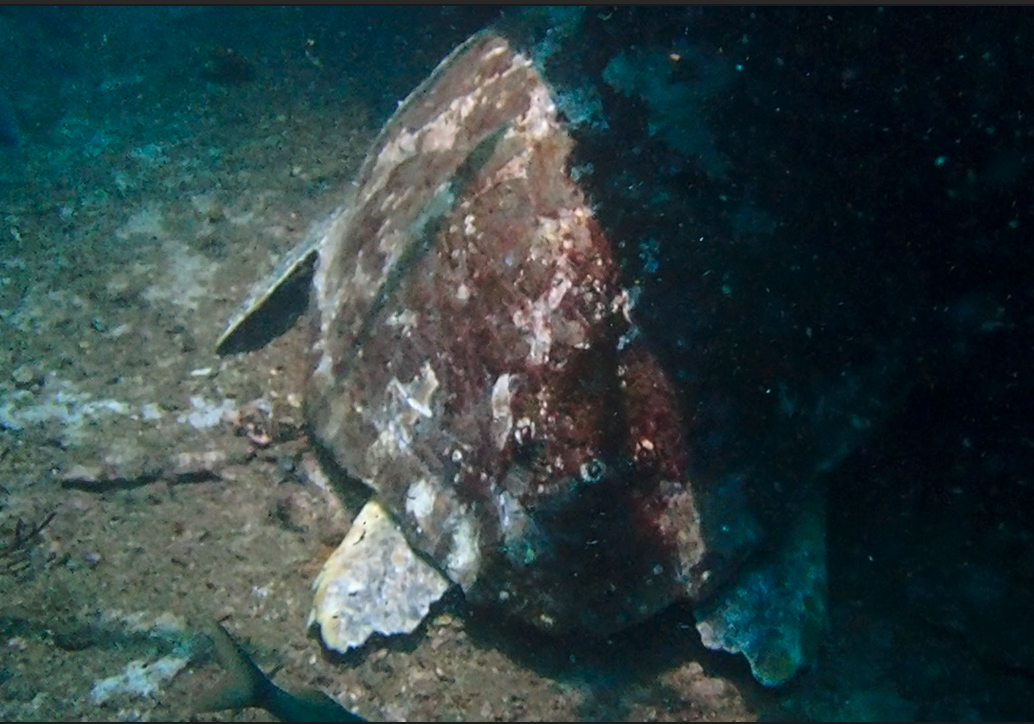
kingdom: Animalia
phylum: Chordata
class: Testudines
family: Cheloniidae
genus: Caretta
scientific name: Caretta caretta
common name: Loggerhead sea turtle
